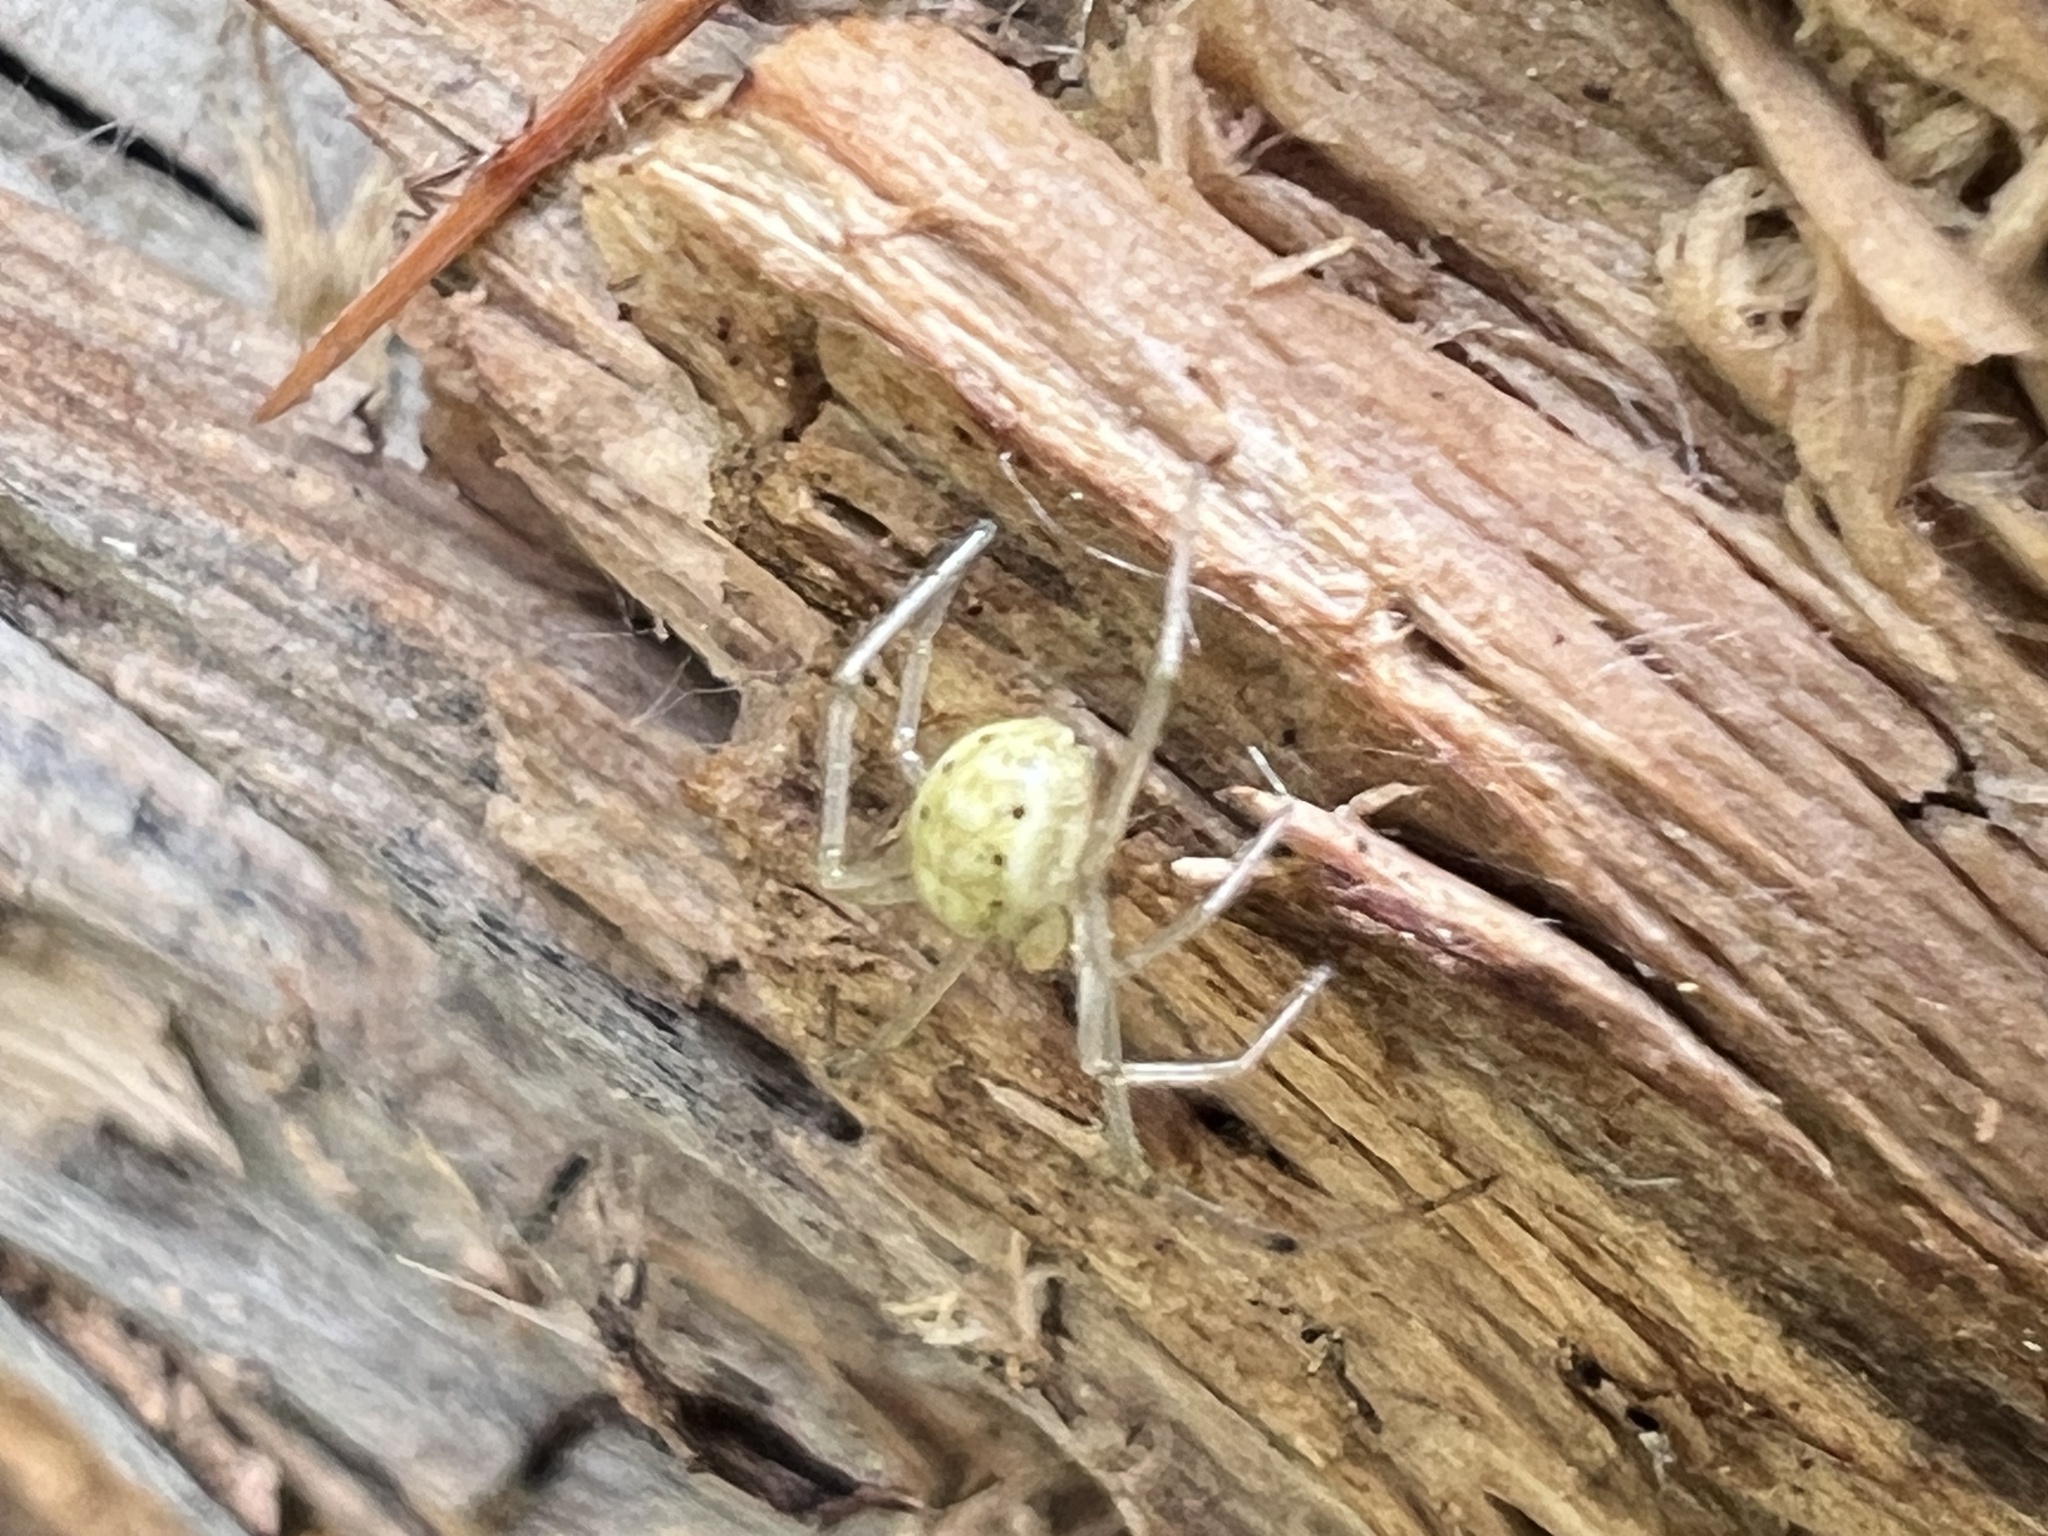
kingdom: Animalia
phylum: Arthropoda
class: Arachnida
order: Araneae
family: Theridiidae
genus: Enoplognatha
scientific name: Enoplognatha ovata
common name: Common candy-striped spider
